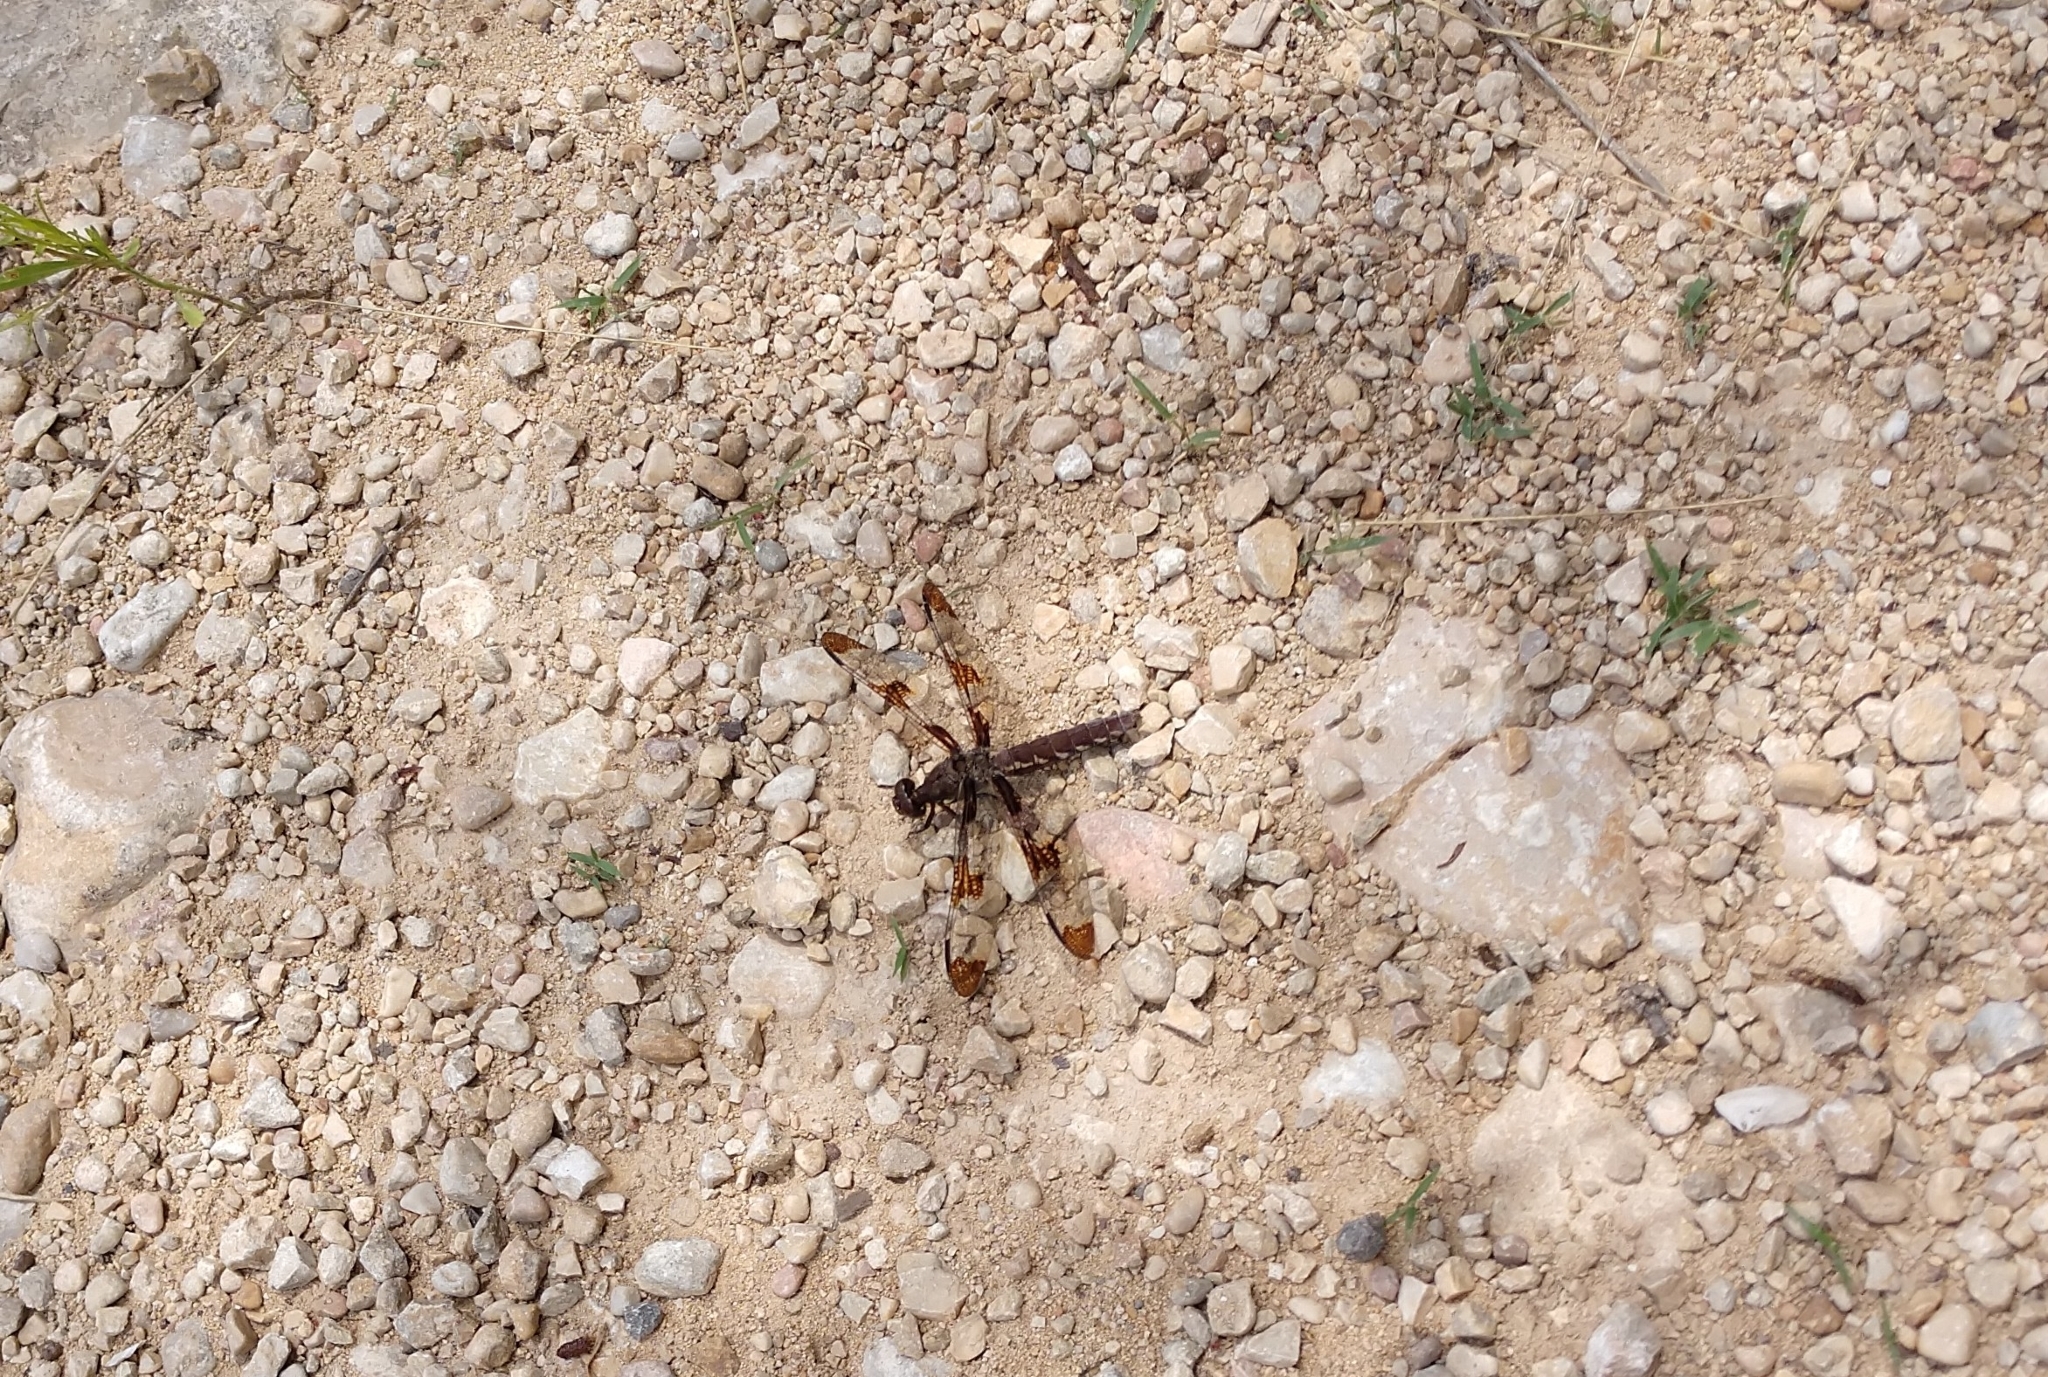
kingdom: Animalia
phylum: Arthropoda
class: Insecta
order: Odonata
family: Libellulidae
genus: Plathemis
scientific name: Plathemis lydia
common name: Common whitetail
